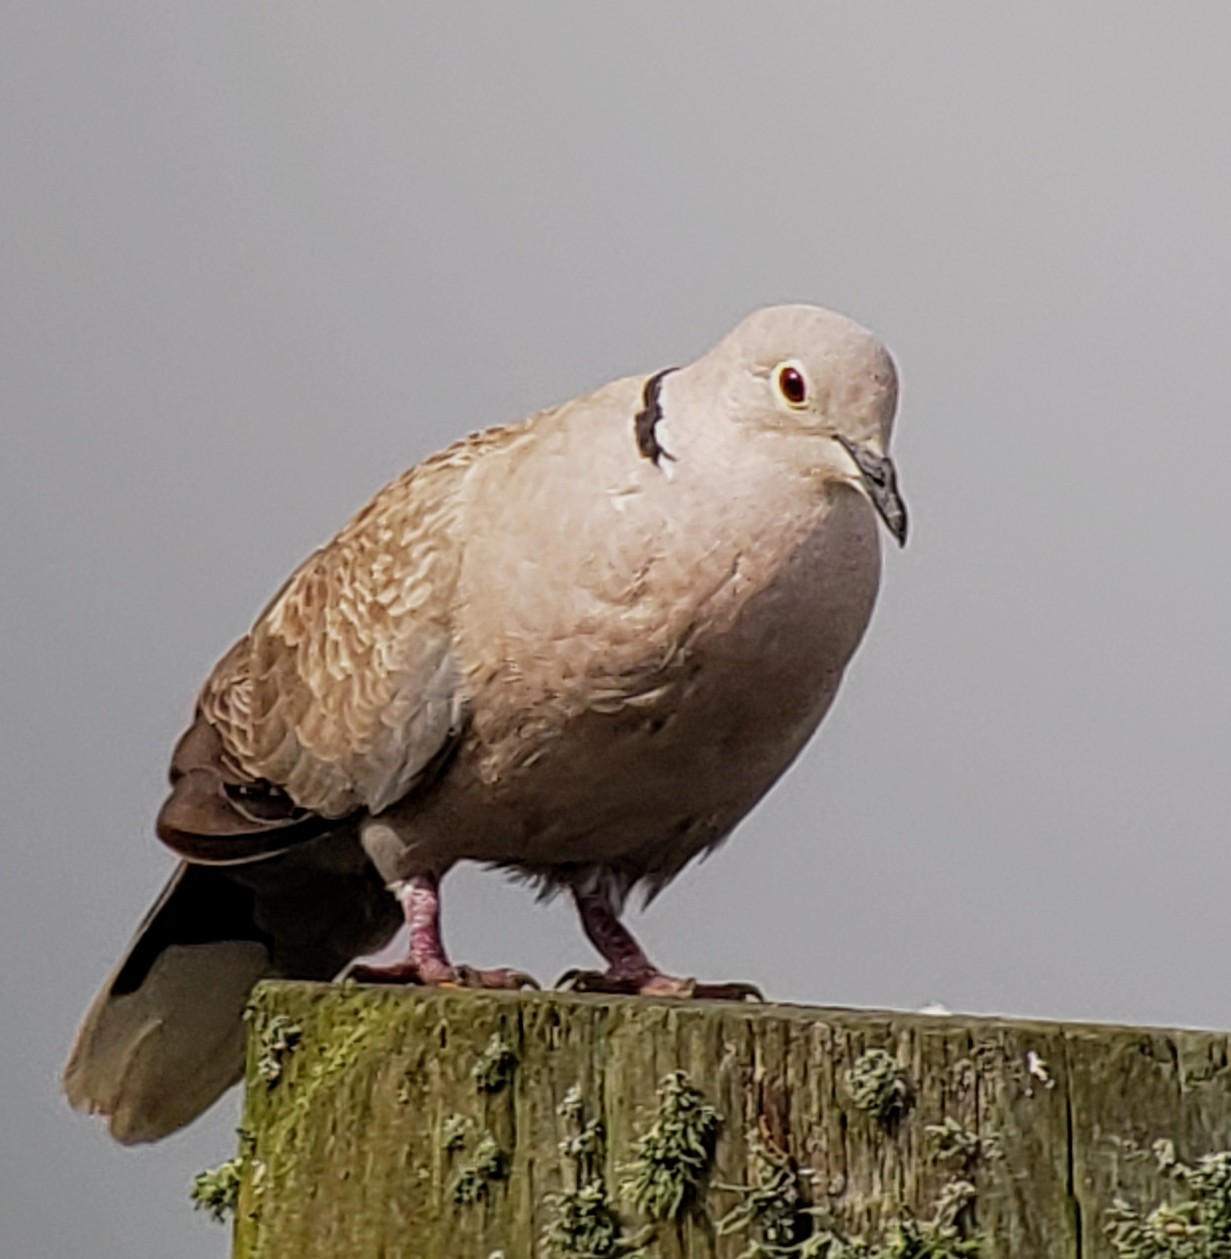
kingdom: Animalia
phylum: Chordata
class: Aves
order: Columbiformes
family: Columbidae
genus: Streptopelia
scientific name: Streptopelia decaocto
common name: Eurasian collared dove
